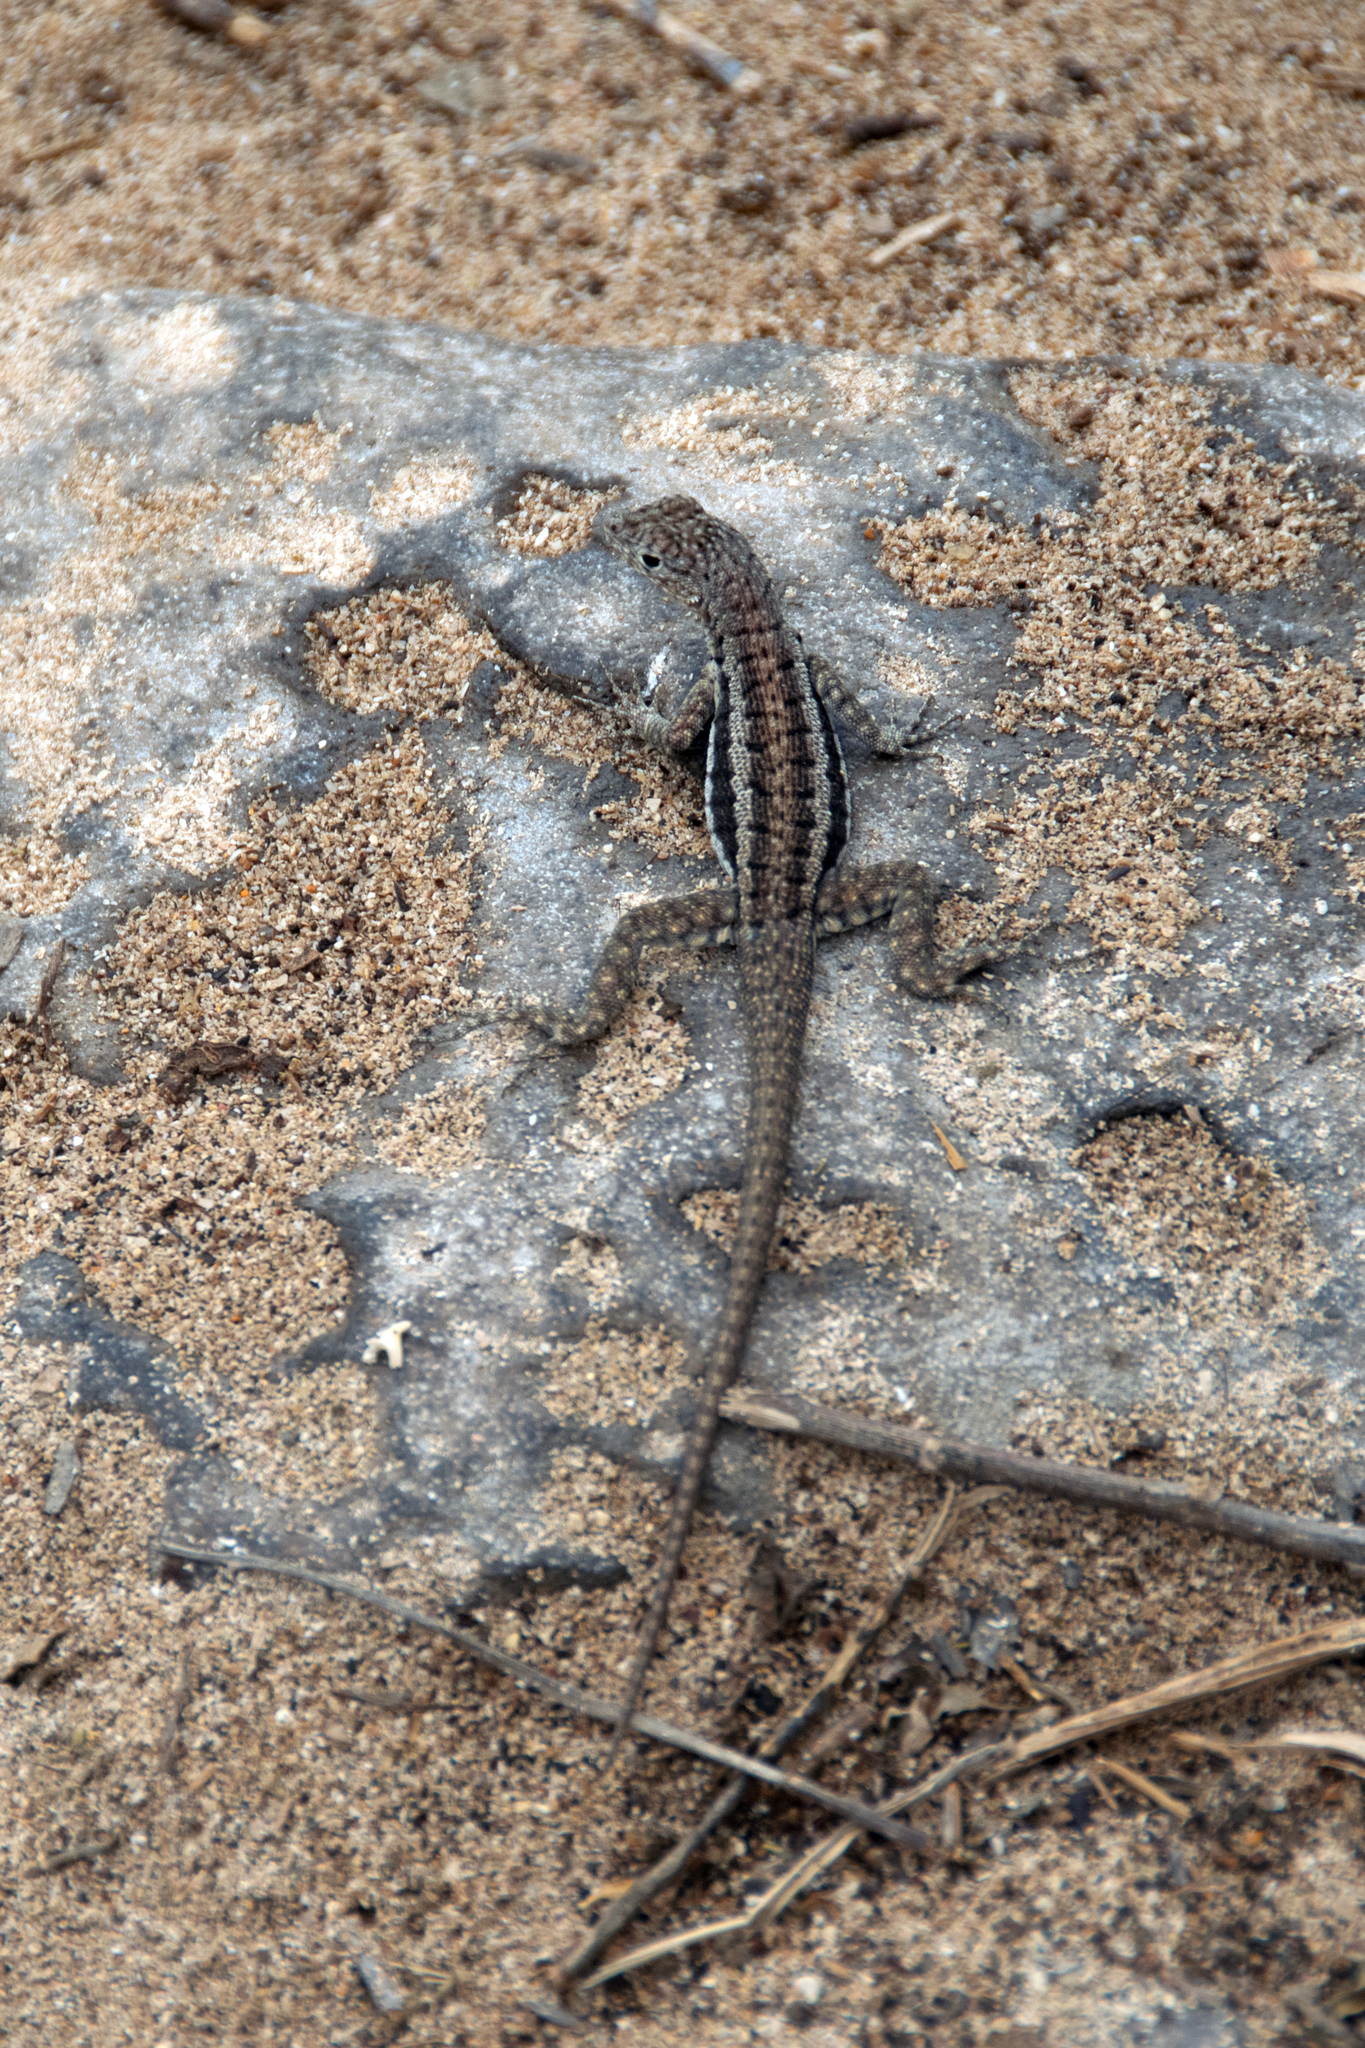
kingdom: Animalia
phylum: Chordata
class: Squamata
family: Tropiduridae
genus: Microlophus
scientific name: Microlophus barringtonensis
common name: Galapagos lava lizard
